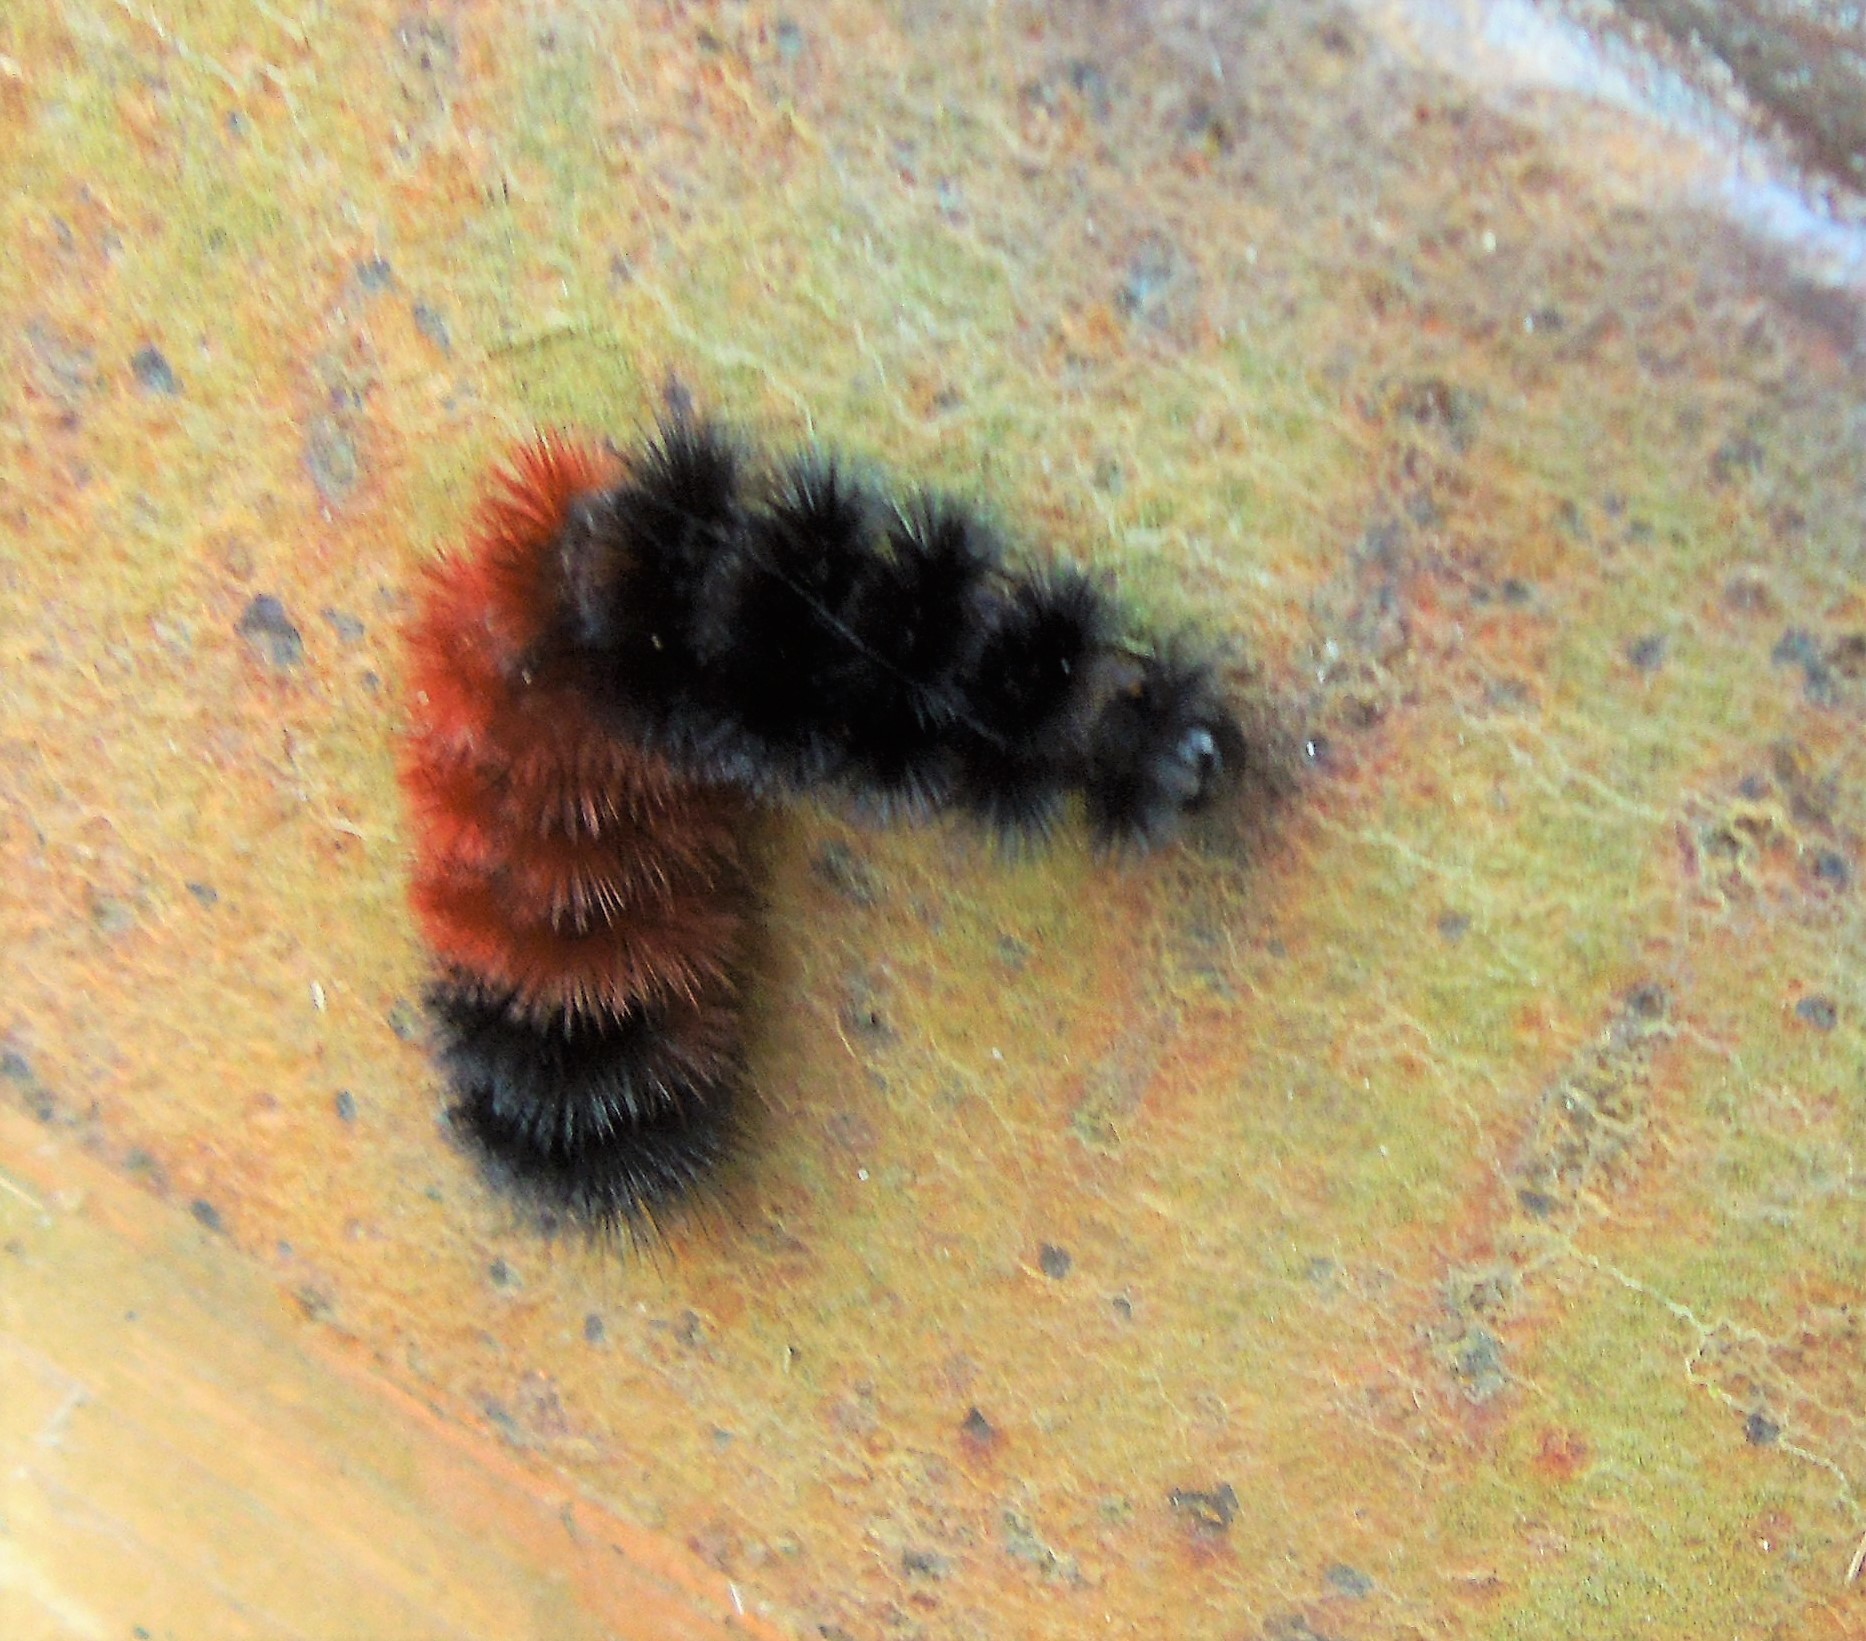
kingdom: Animalia
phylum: Arthropoda
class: Insecta
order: Lepidoptera
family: Erebidae
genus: Pyrrharctia
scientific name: Pyrrharctia isabella
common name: Isabella tiger moth
